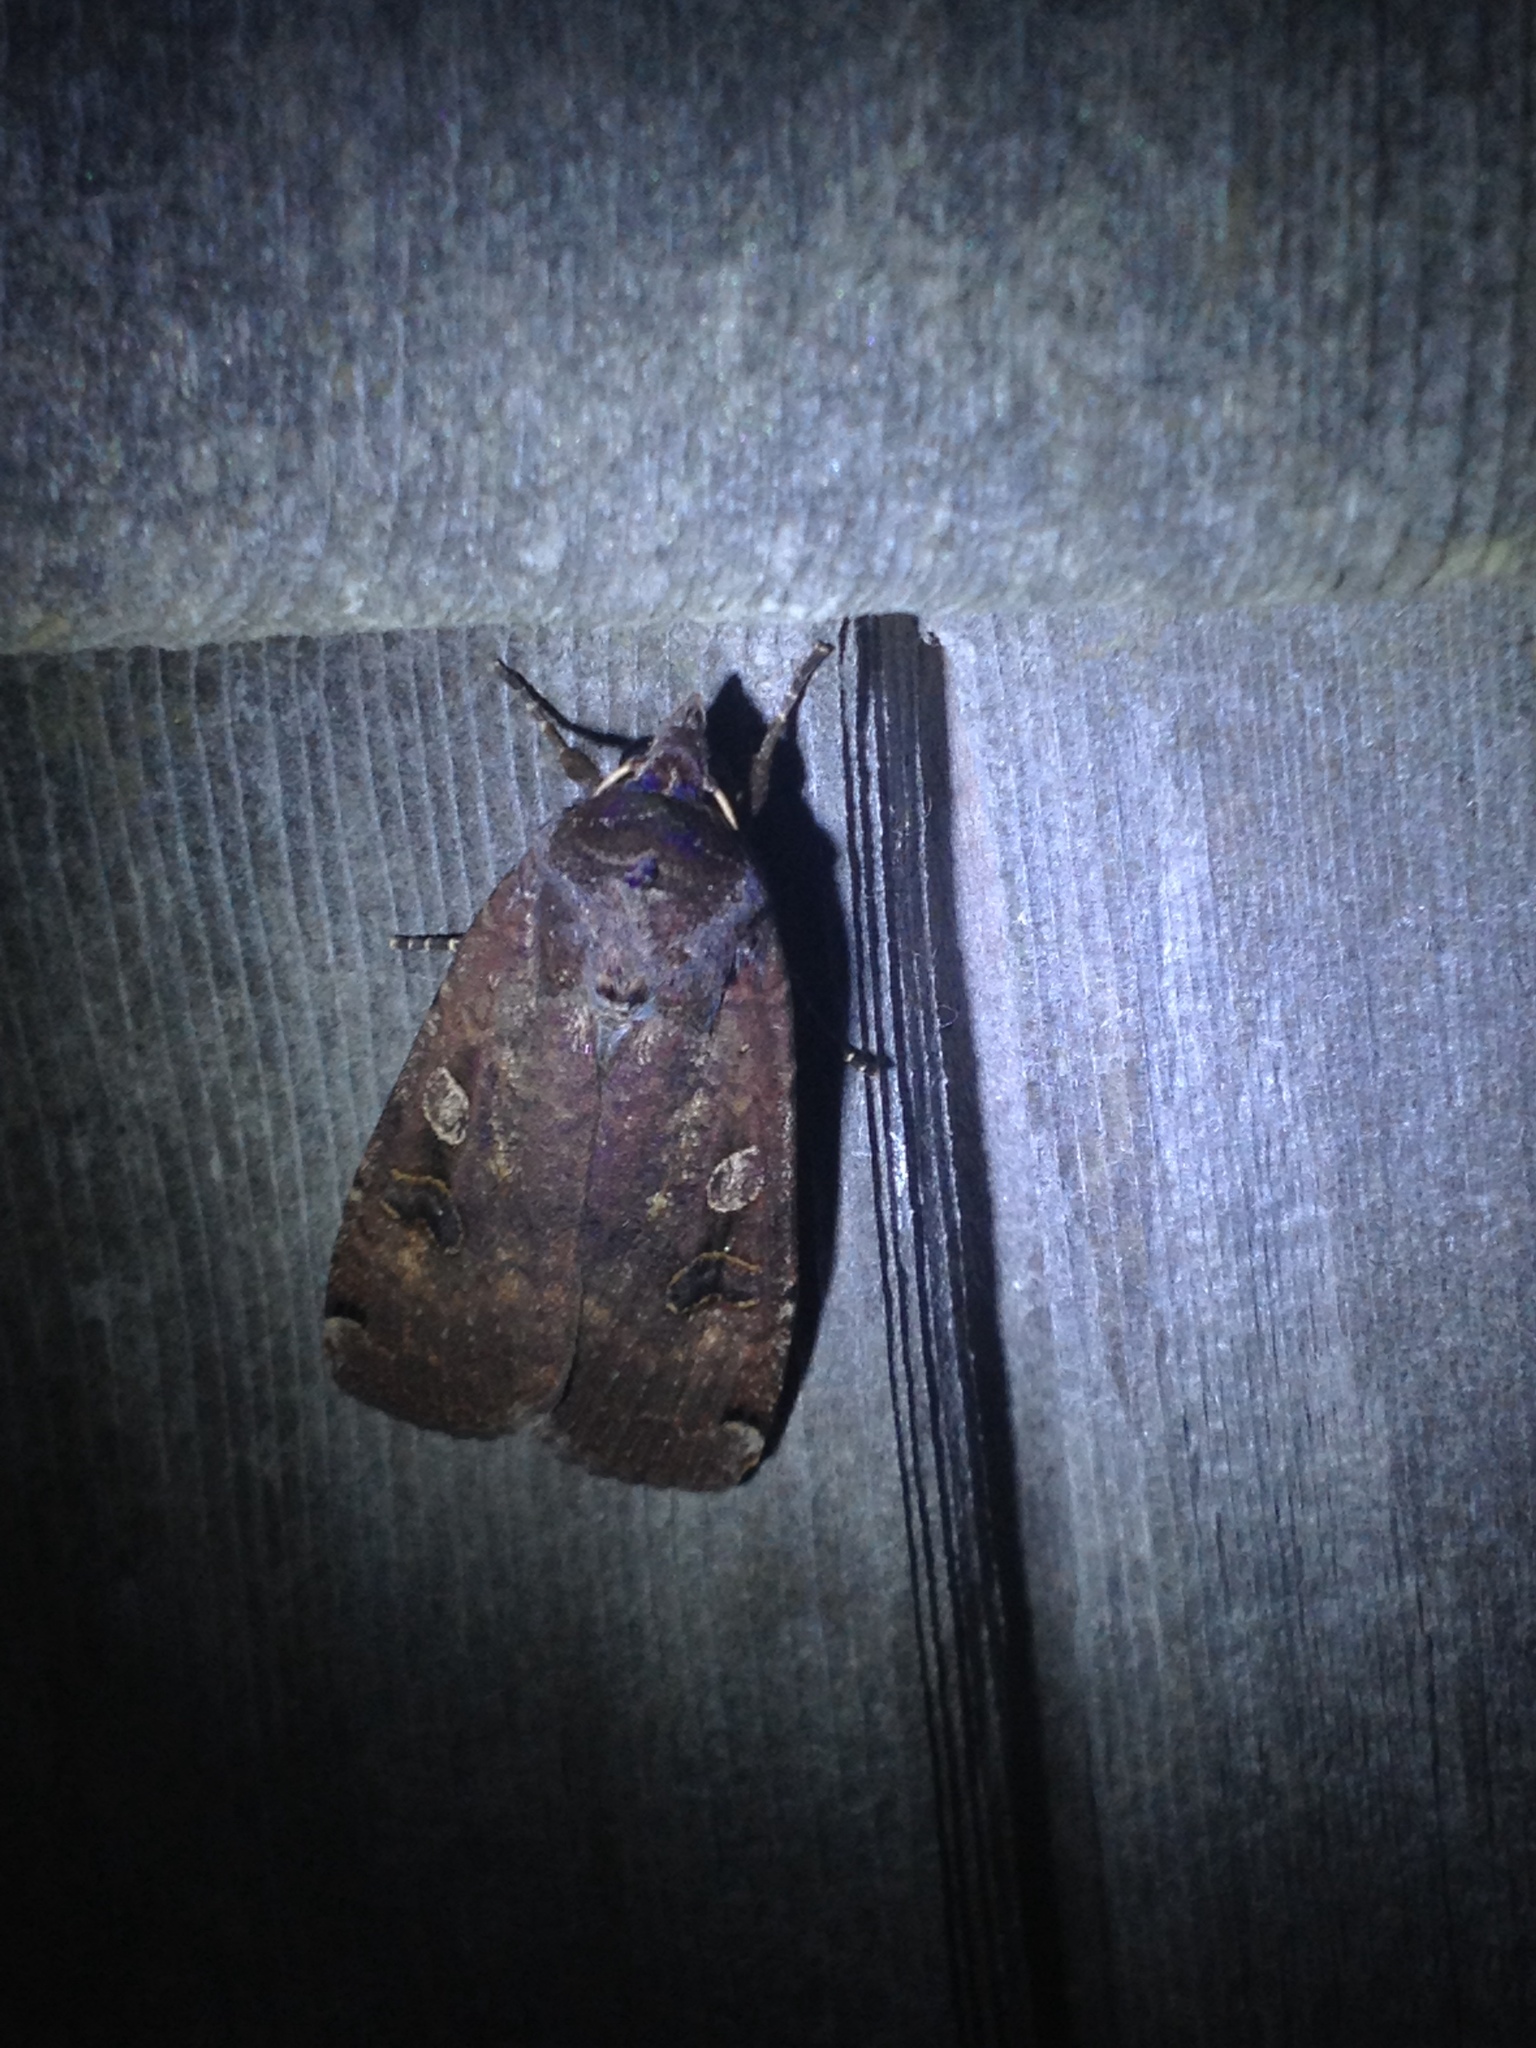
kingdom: Animalia
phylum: Arthropoda
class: Insecta
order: Lepidoptera
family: Noctuidae
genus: Noctua
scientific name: Noctua pronuba
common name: Large yellow underwing
